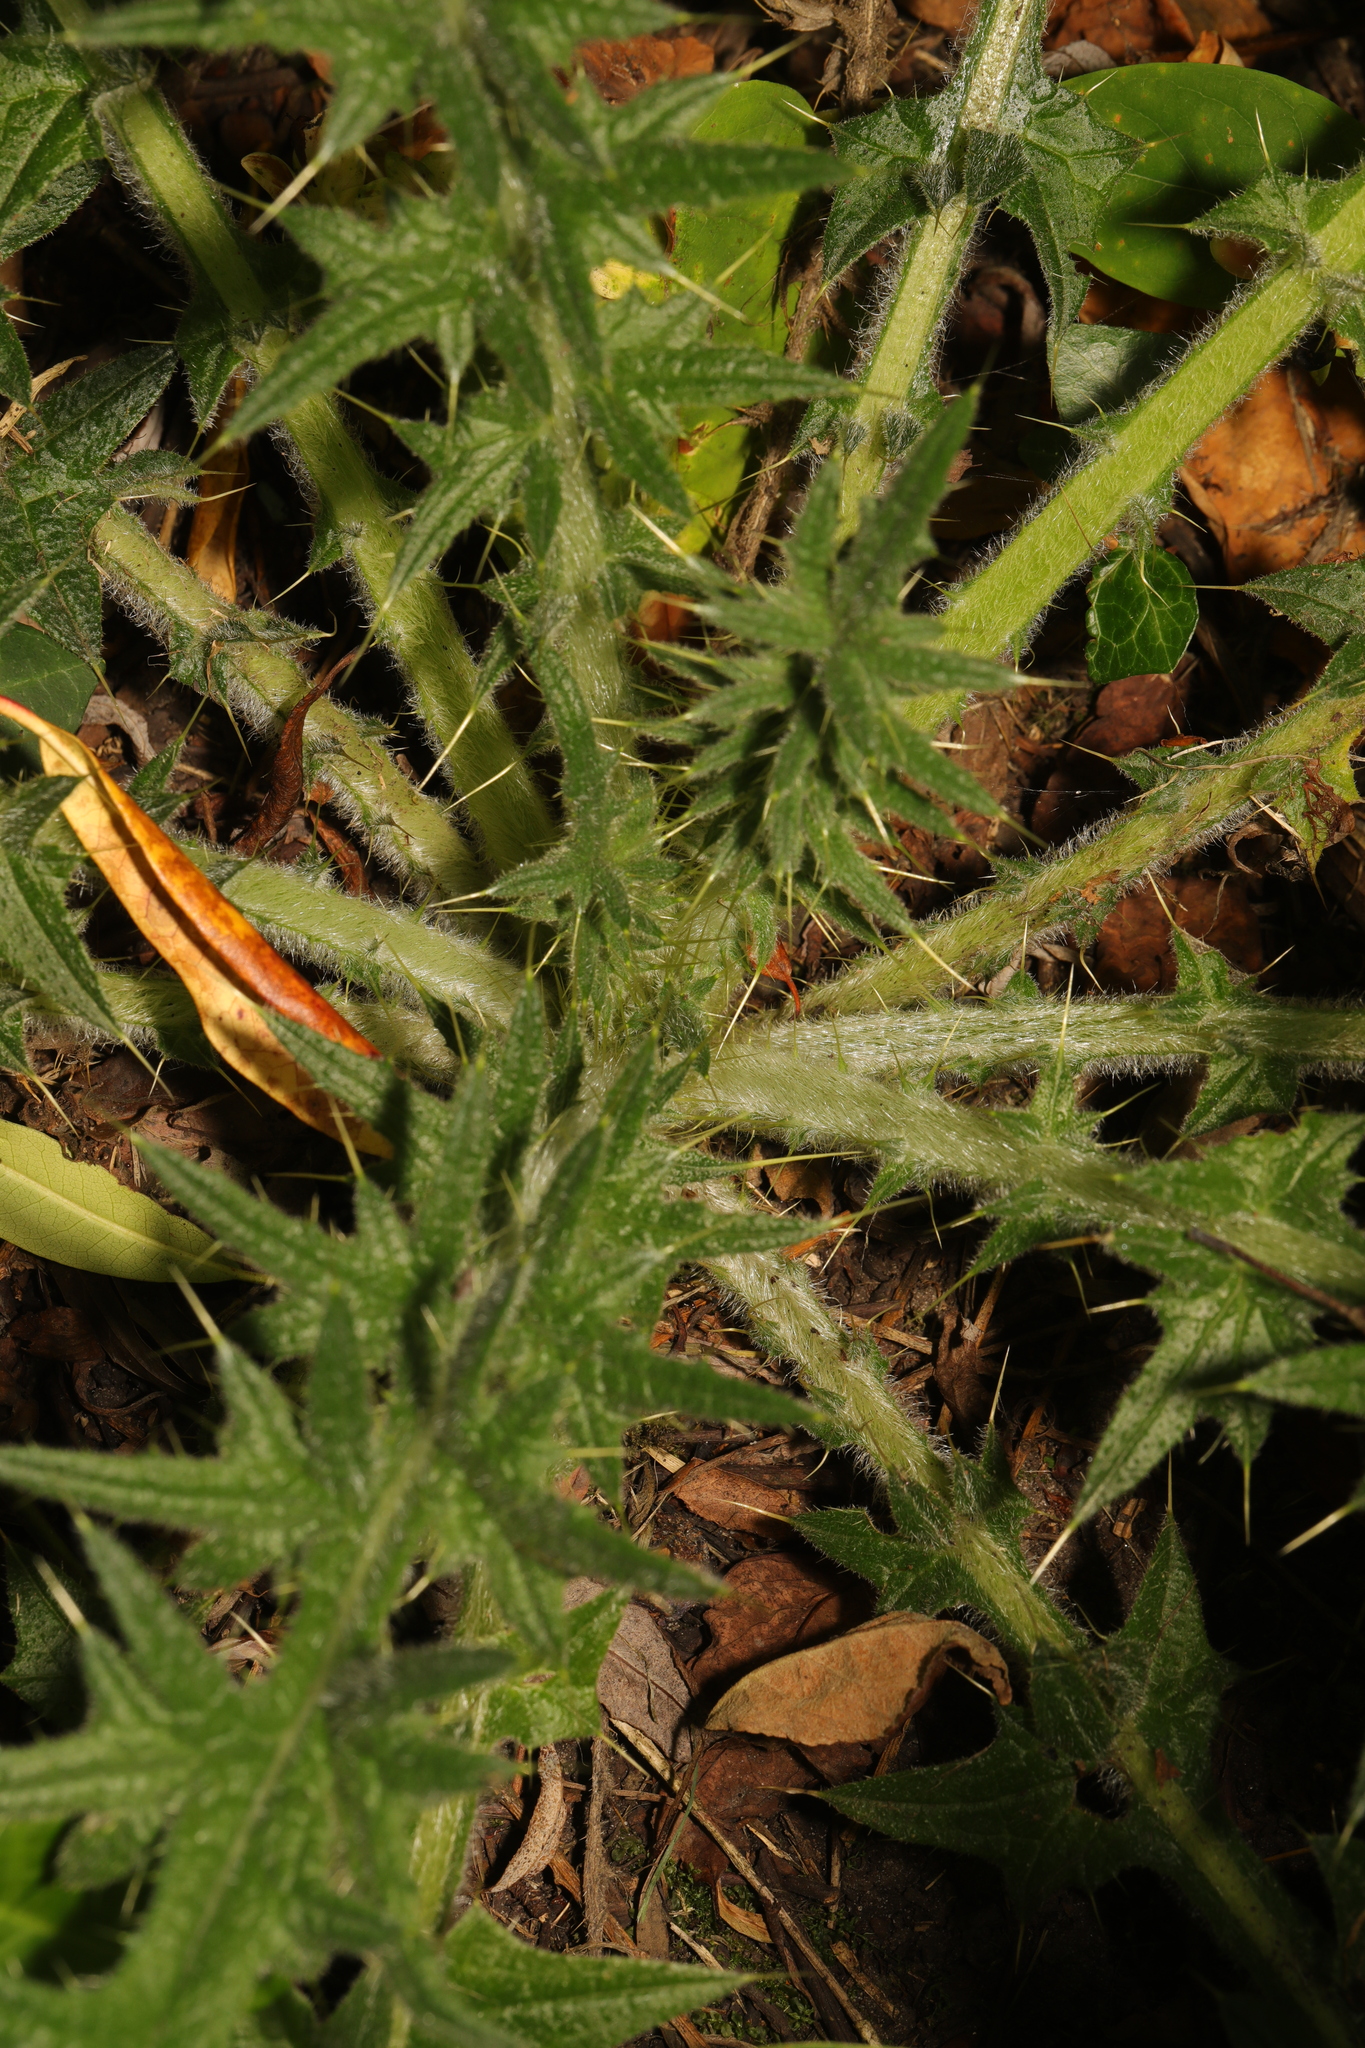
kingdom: Plantae
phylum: Tracheophyta
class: Magnoliopsida
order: Asterales
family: Asteraceae
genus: Cirsium
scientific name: Cirsium vulgare
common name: Bull thistle
